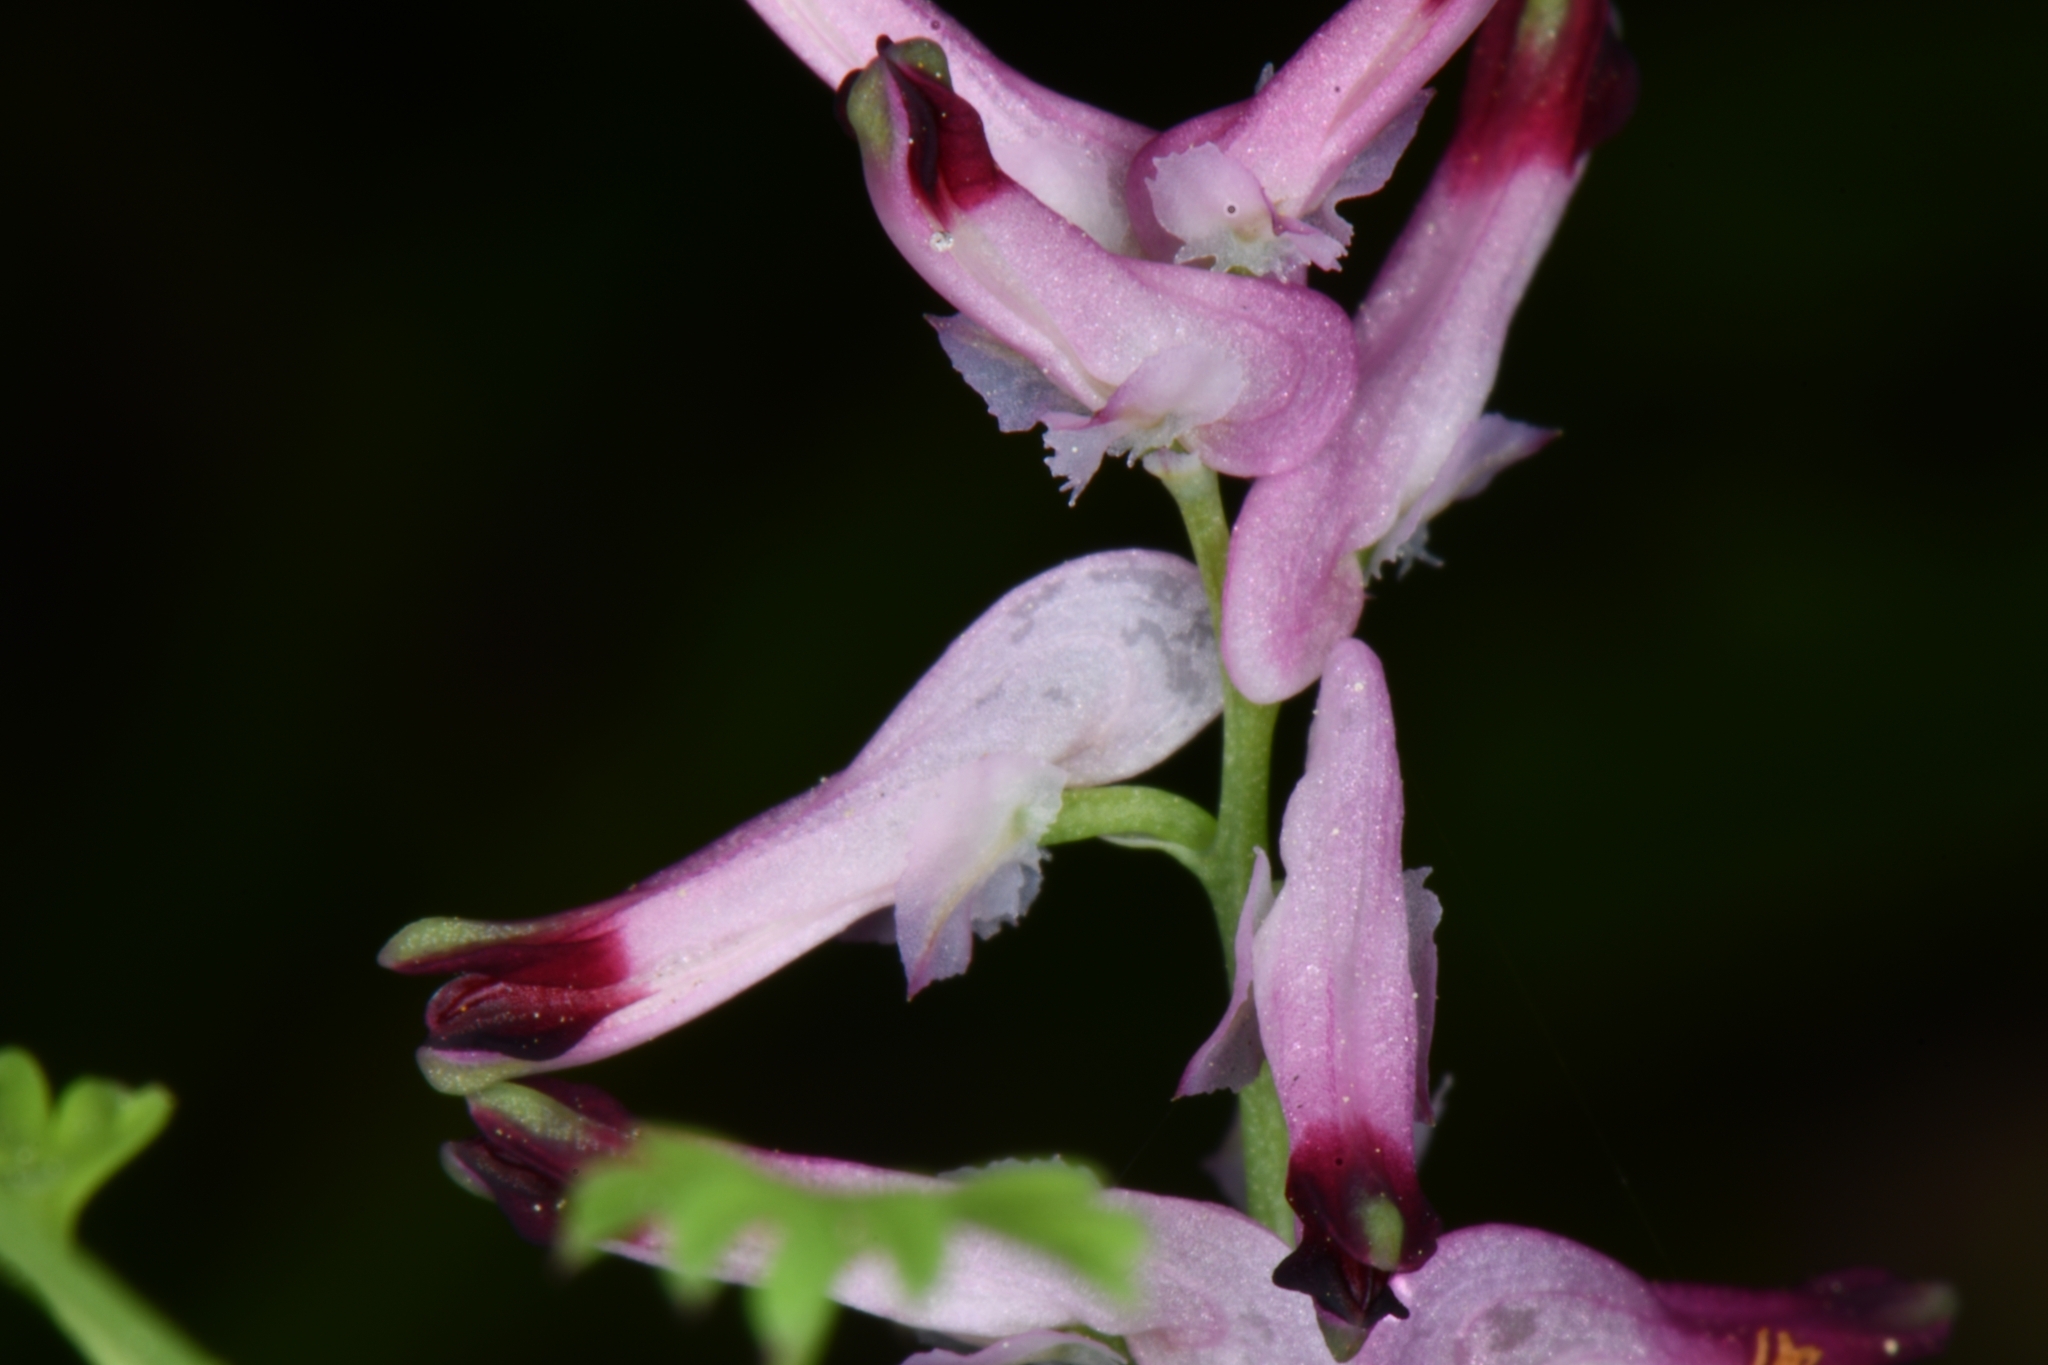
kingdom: Plantae
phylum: Tracheophyta
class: Magnoliopsida
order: Ranunculales
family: Papaveraceae
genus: Fumaria
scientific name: Fumaria muralis
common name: Common ramping-fumitory
